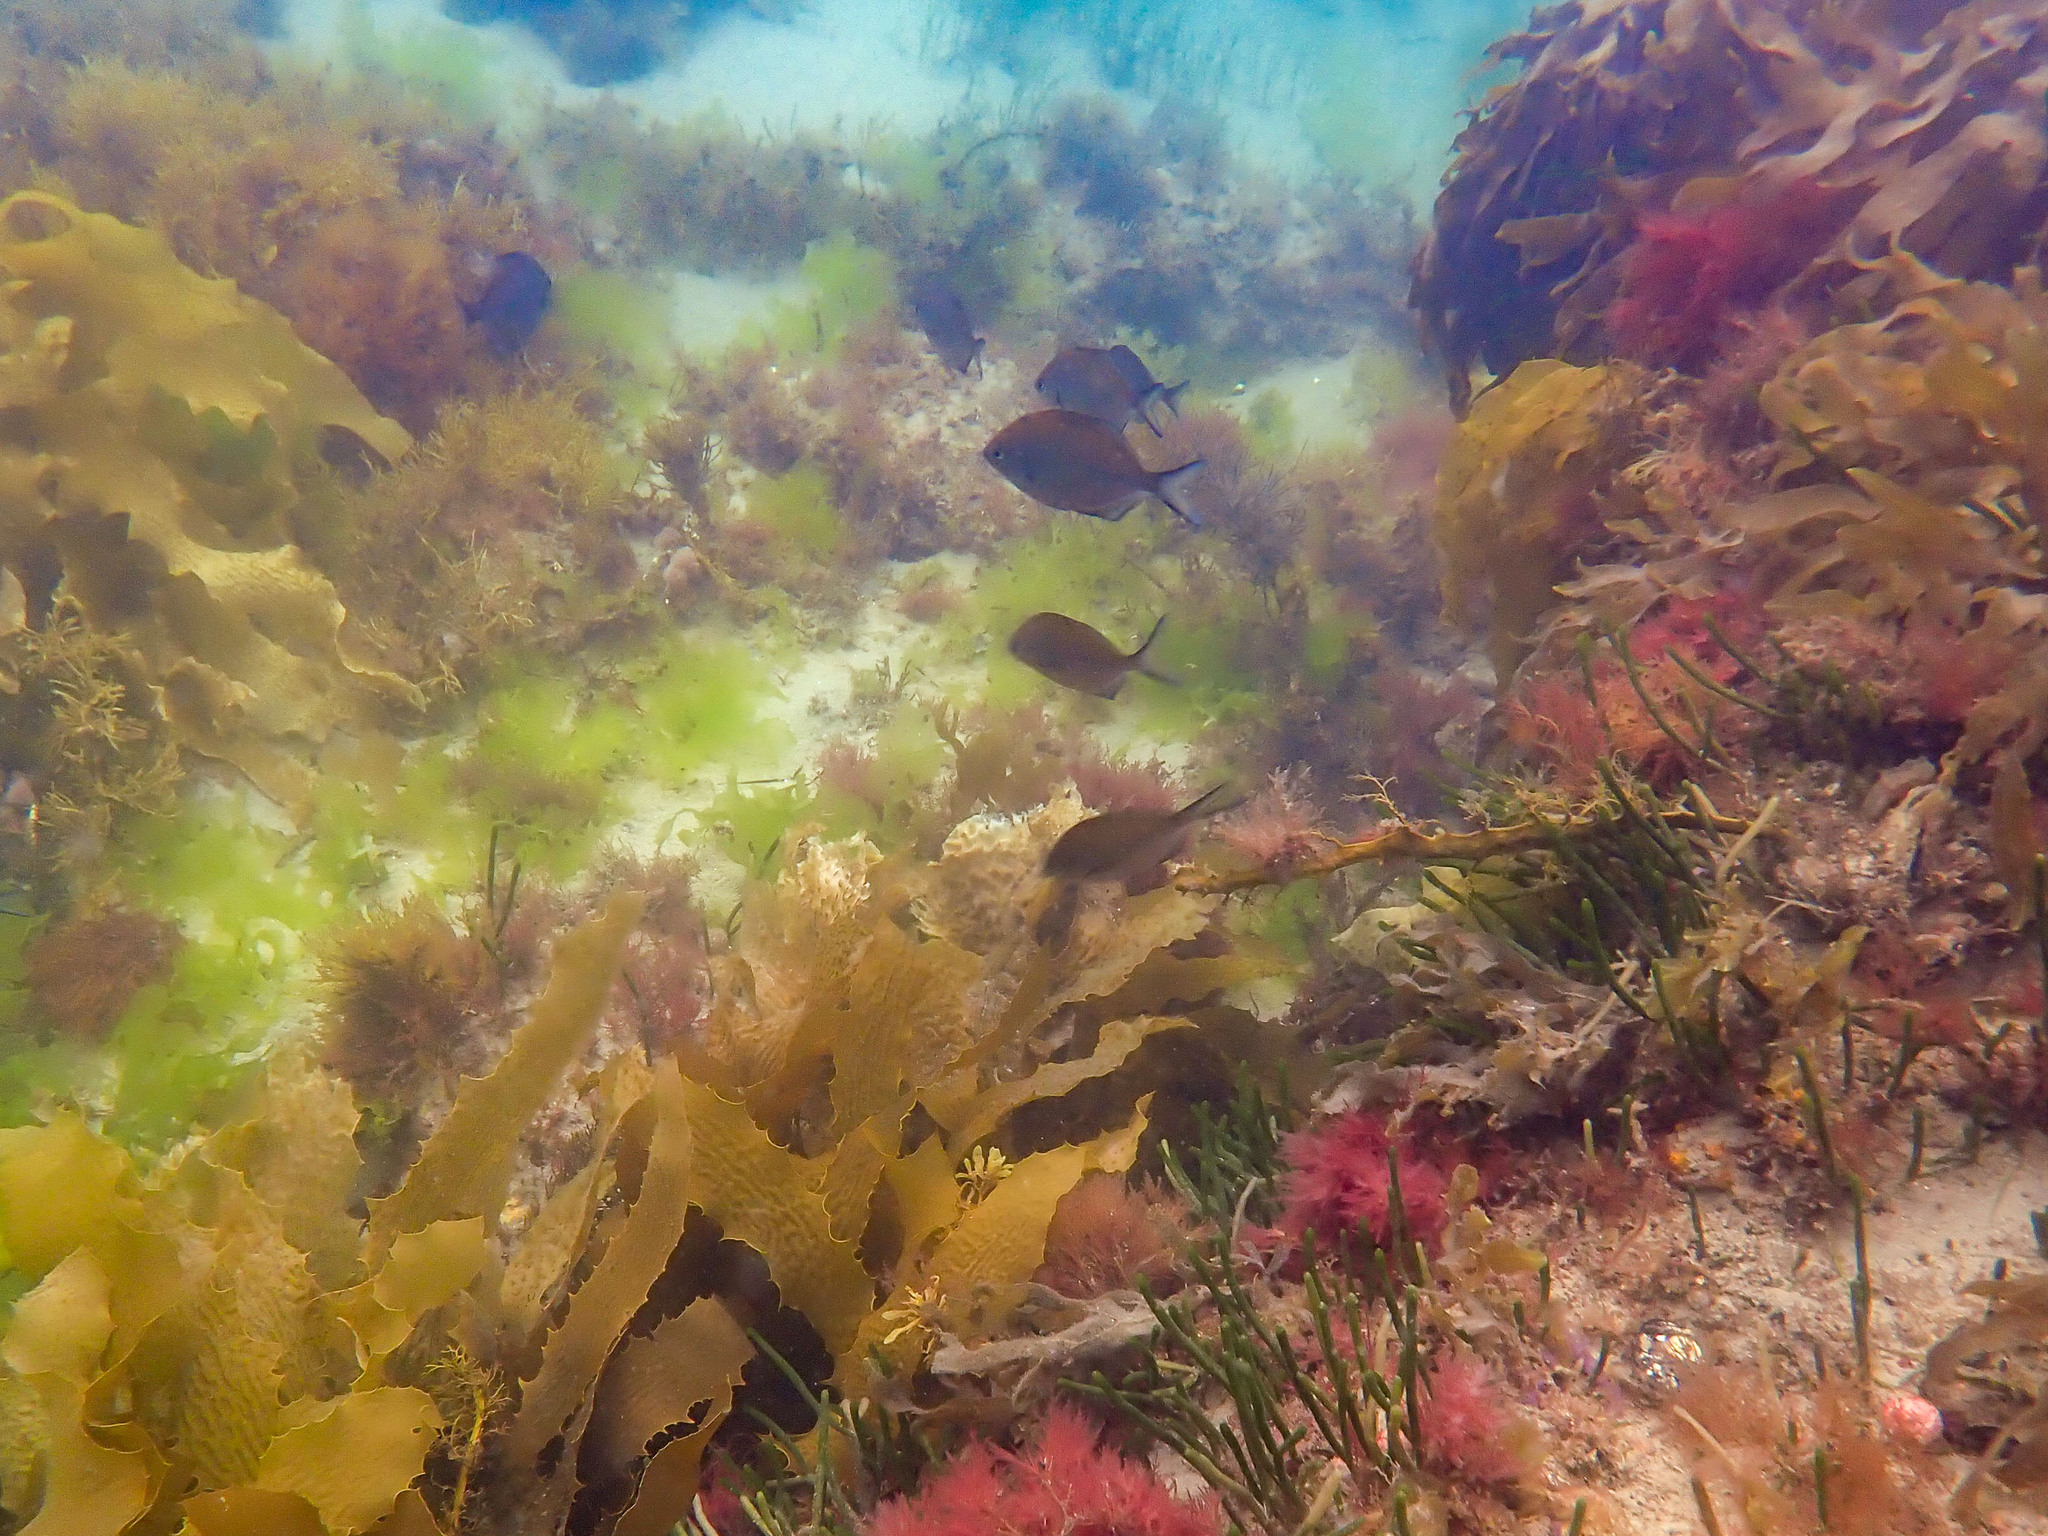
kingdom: Animalia
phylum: Chordata
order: Perciformes
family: Kyphosidae
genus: Scorpis
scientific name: Scorpis lineolata
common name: Sweep
